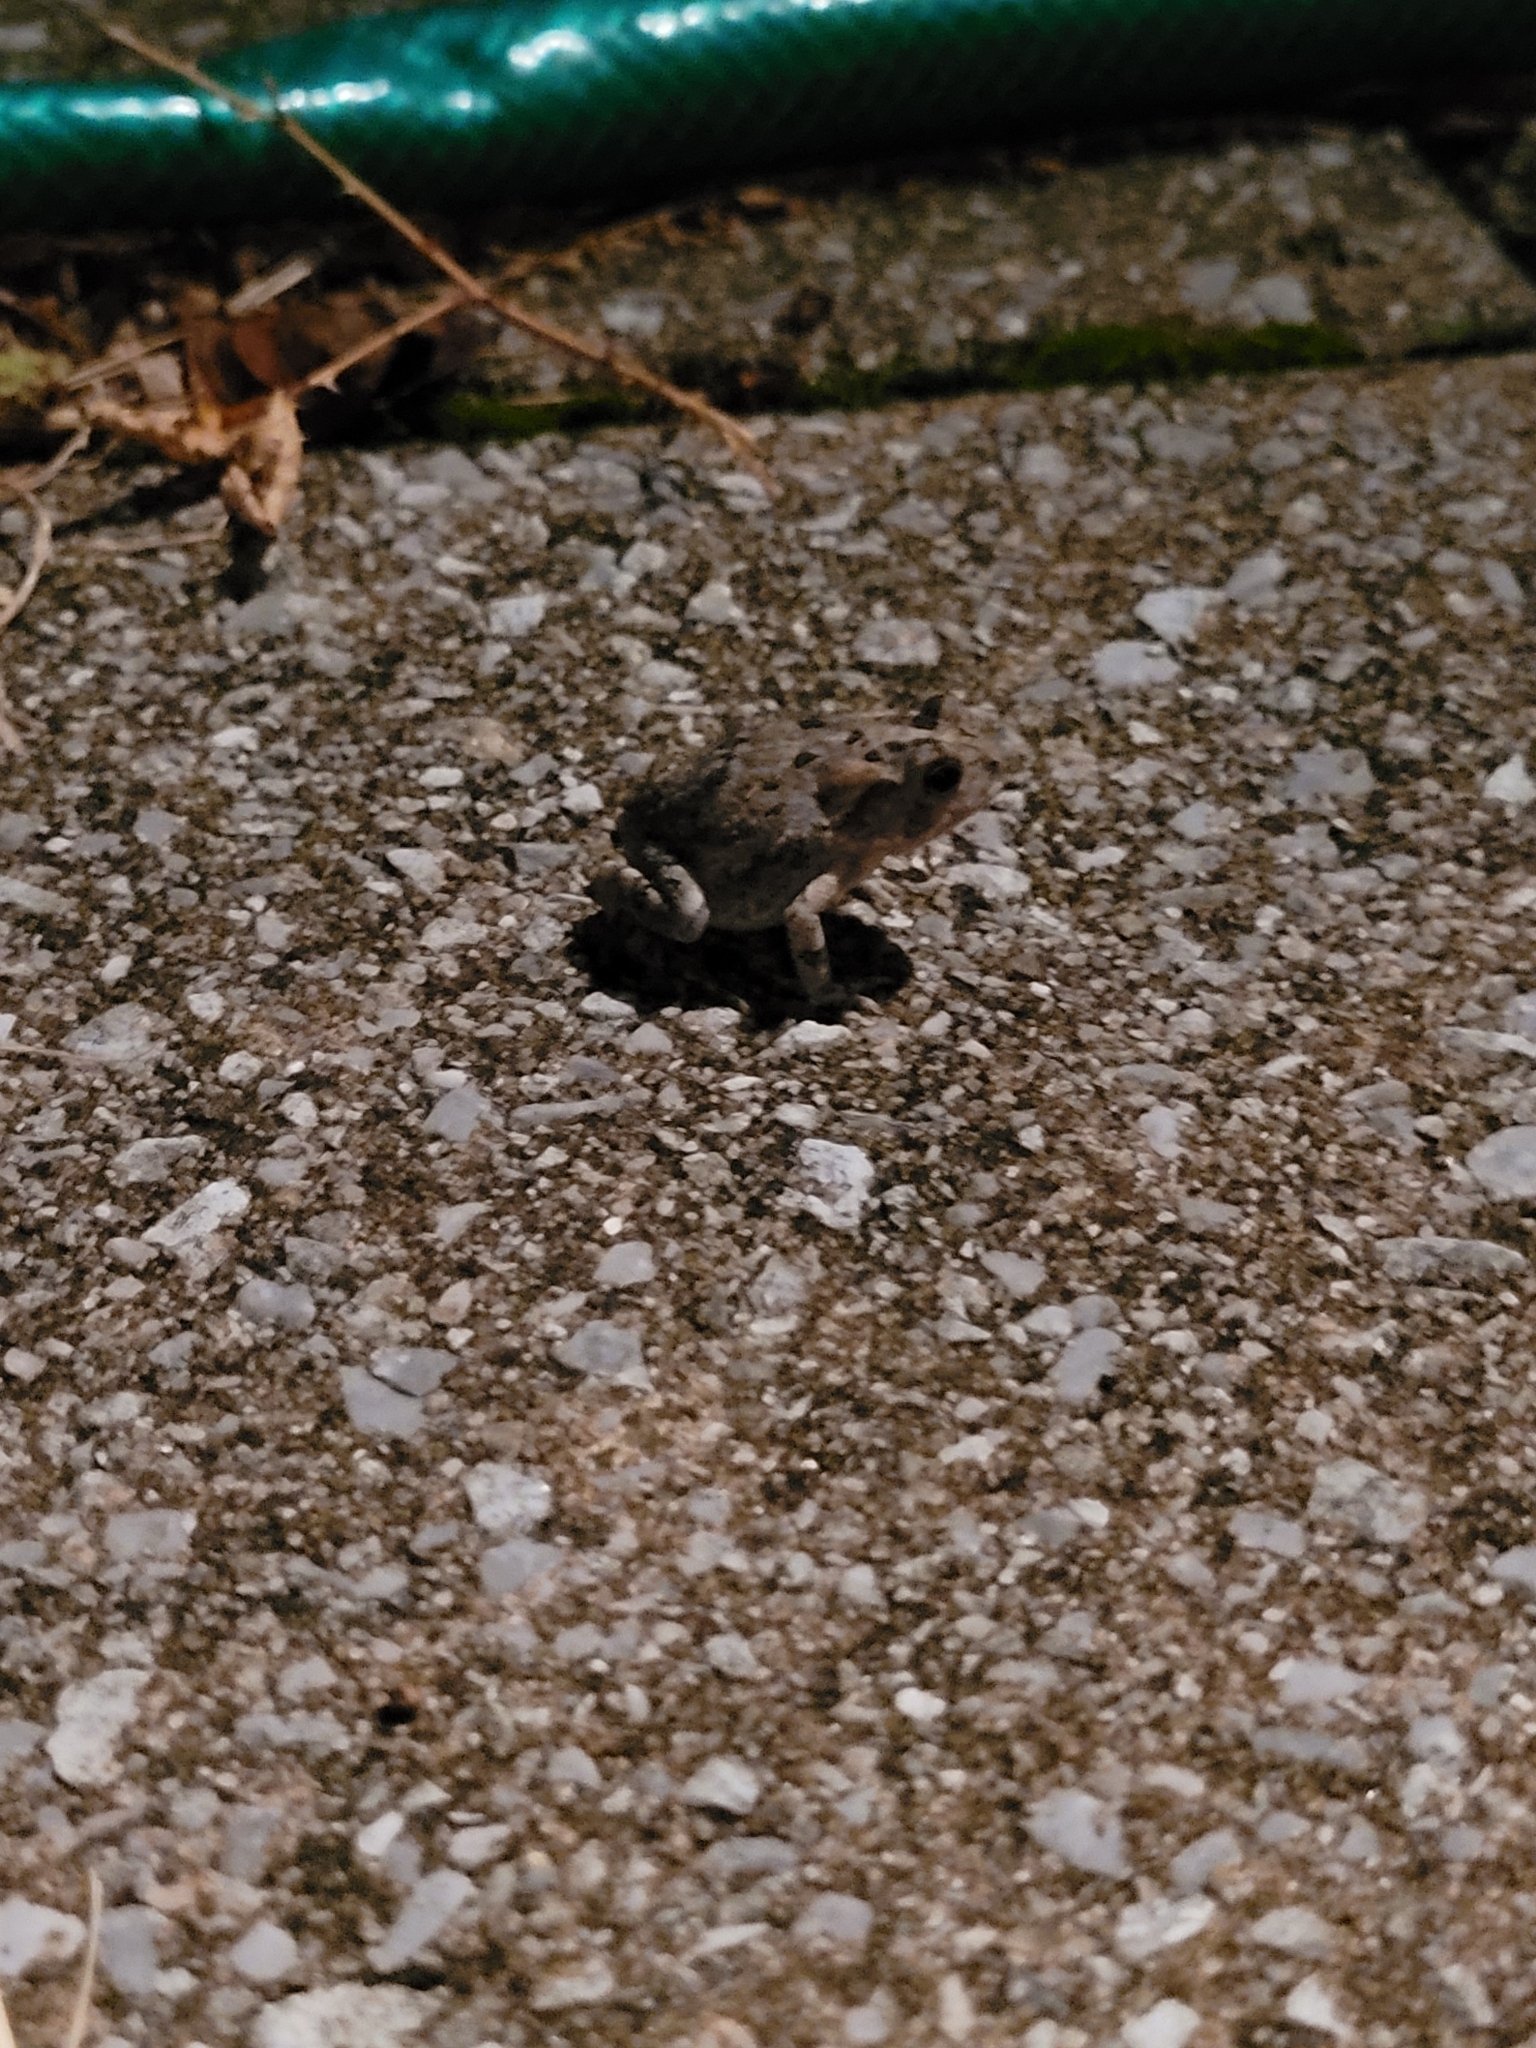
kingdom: Animalia
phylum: Chordata
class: Amphibia
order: Anura
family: Bufonidae
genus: Anaxyrus
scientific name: Anaxyrus terrestris
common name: Southern toad
